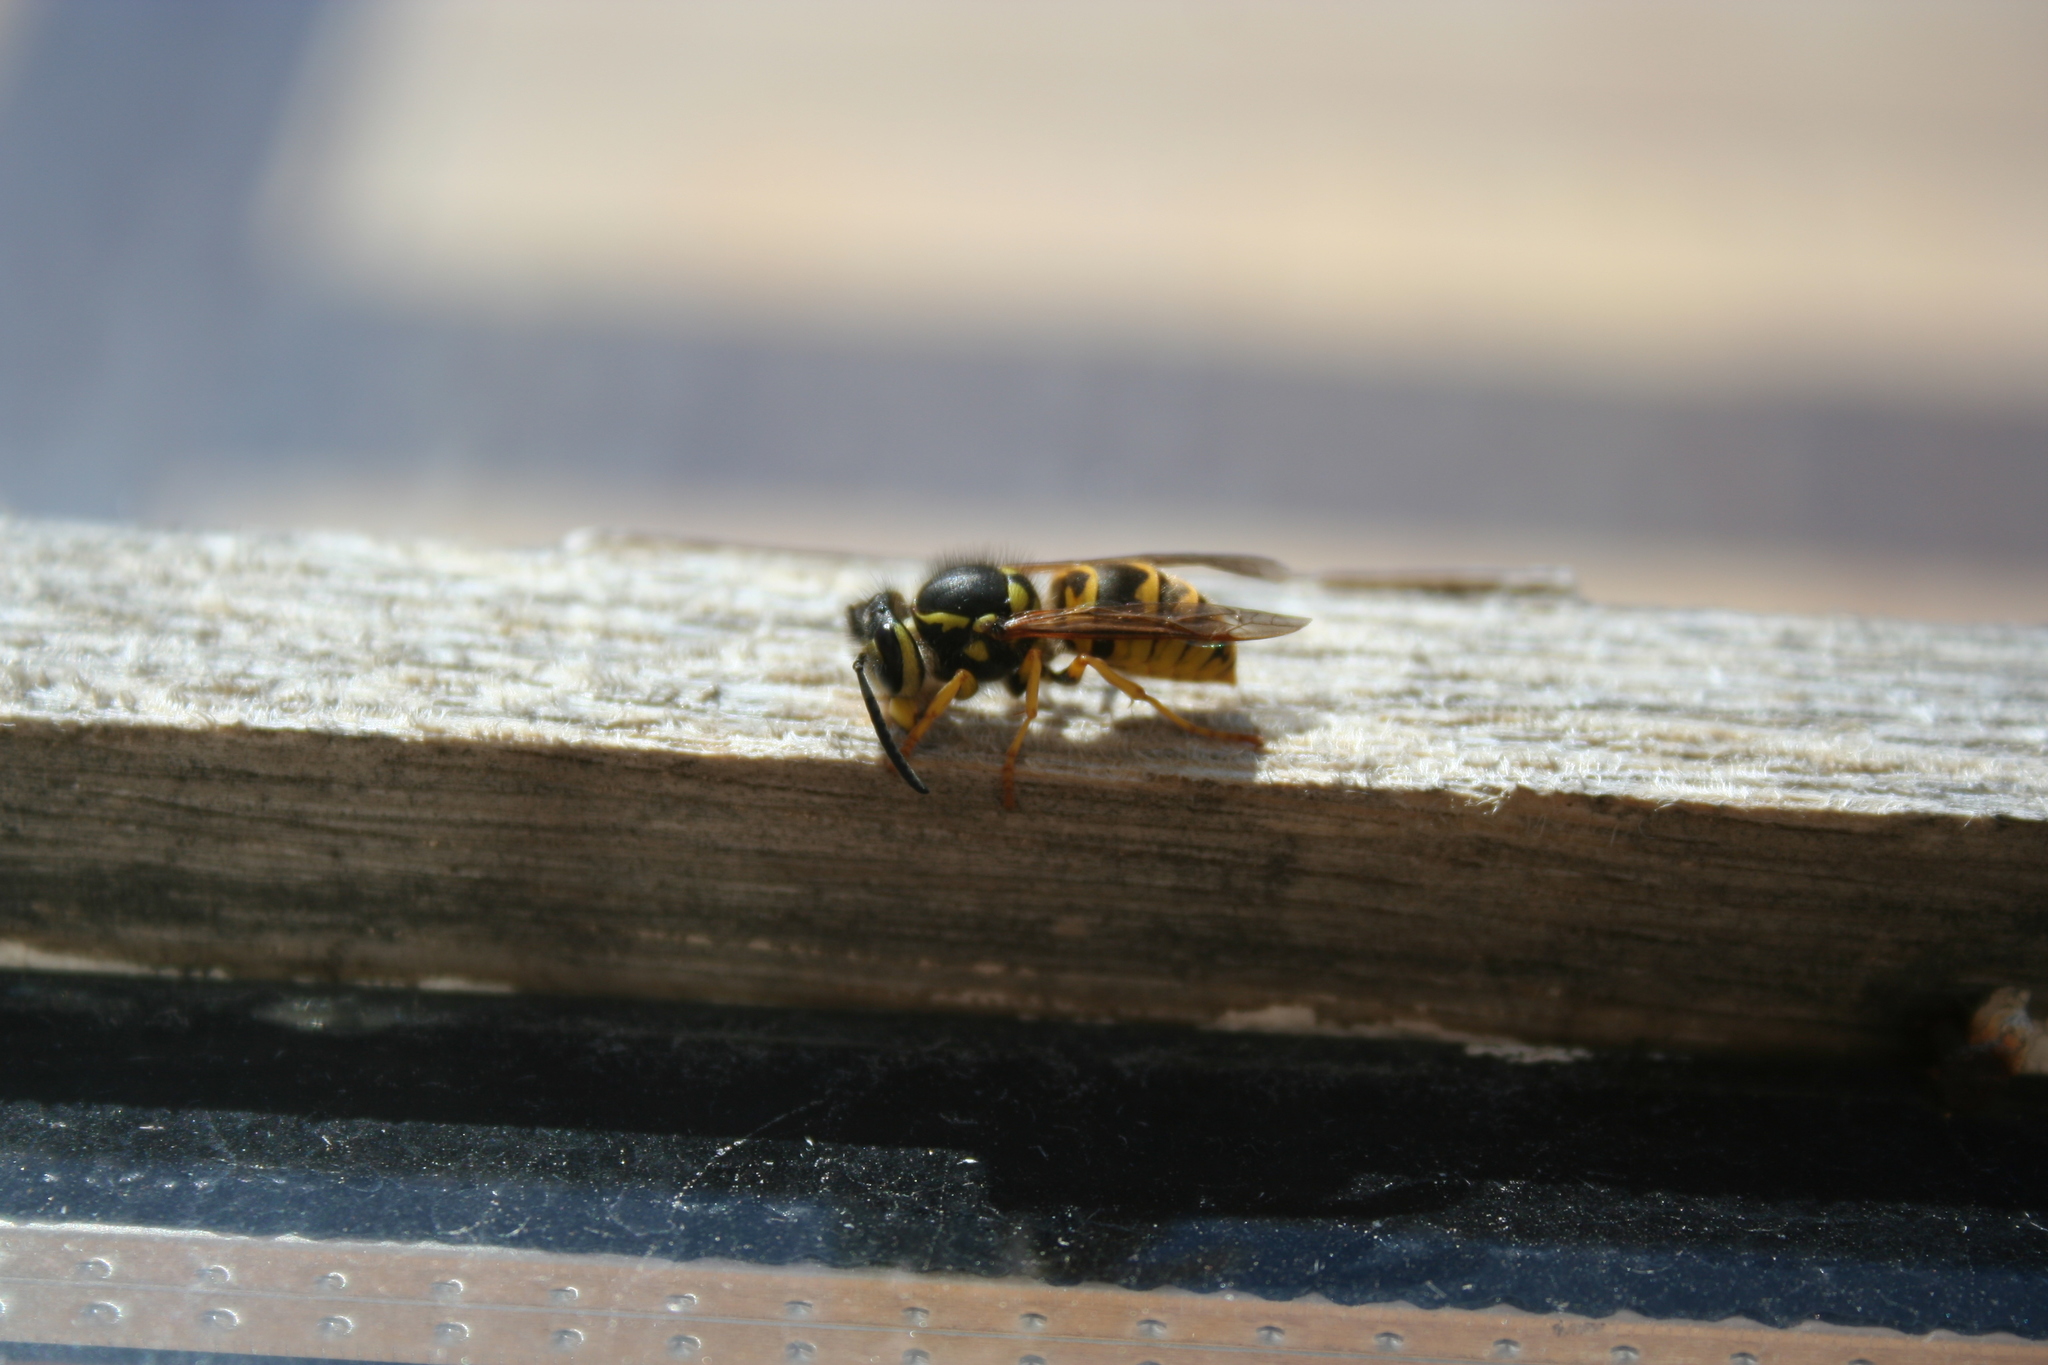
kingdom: Animalia
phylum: Arthropoda
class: Insecta
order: Hymenoptera
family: Vespidae
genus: Vespula
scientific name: Vespula germanica
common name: German wasp
